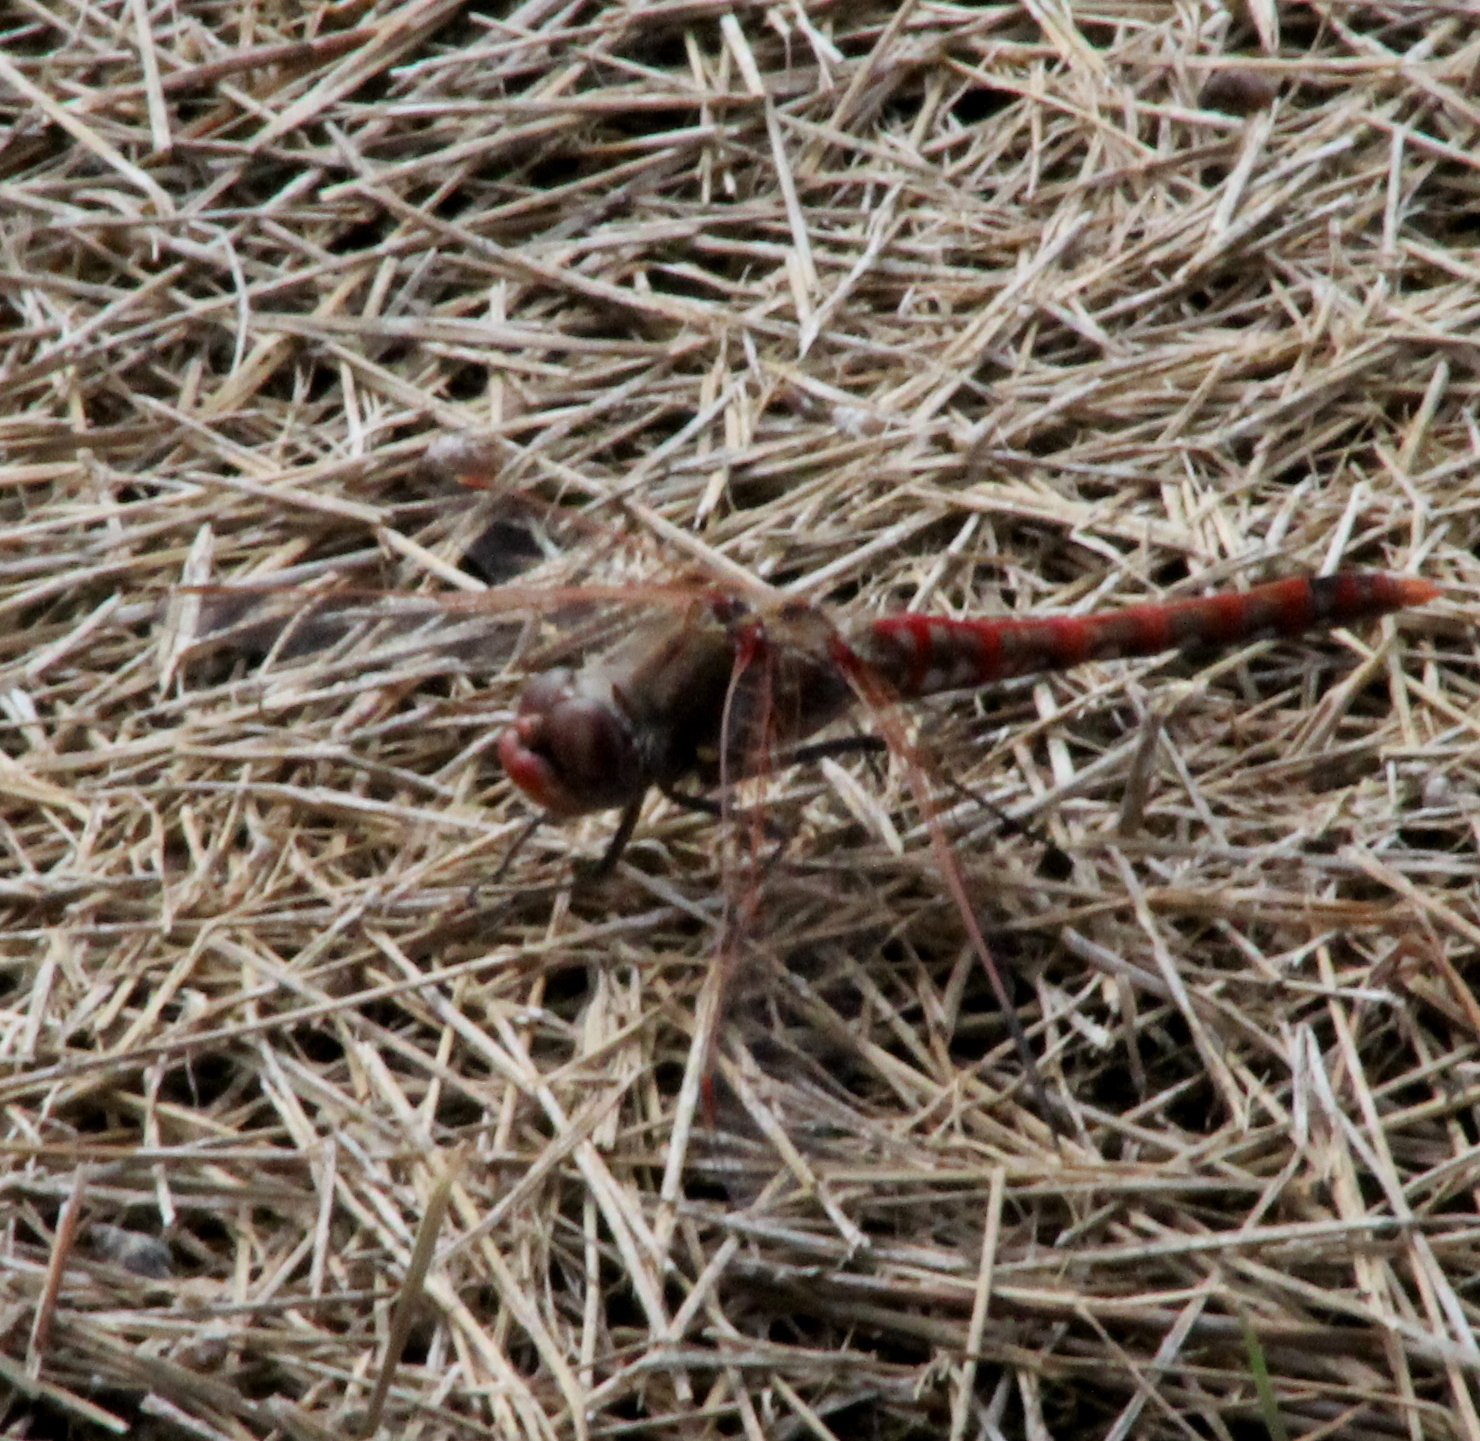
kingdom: Animalia
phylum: Arthropoda
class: Insecta
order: Odonata
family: Libellulidae
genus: Sympetrum
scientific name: Sympetrum corruptum
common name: Variegated meadowhawk
